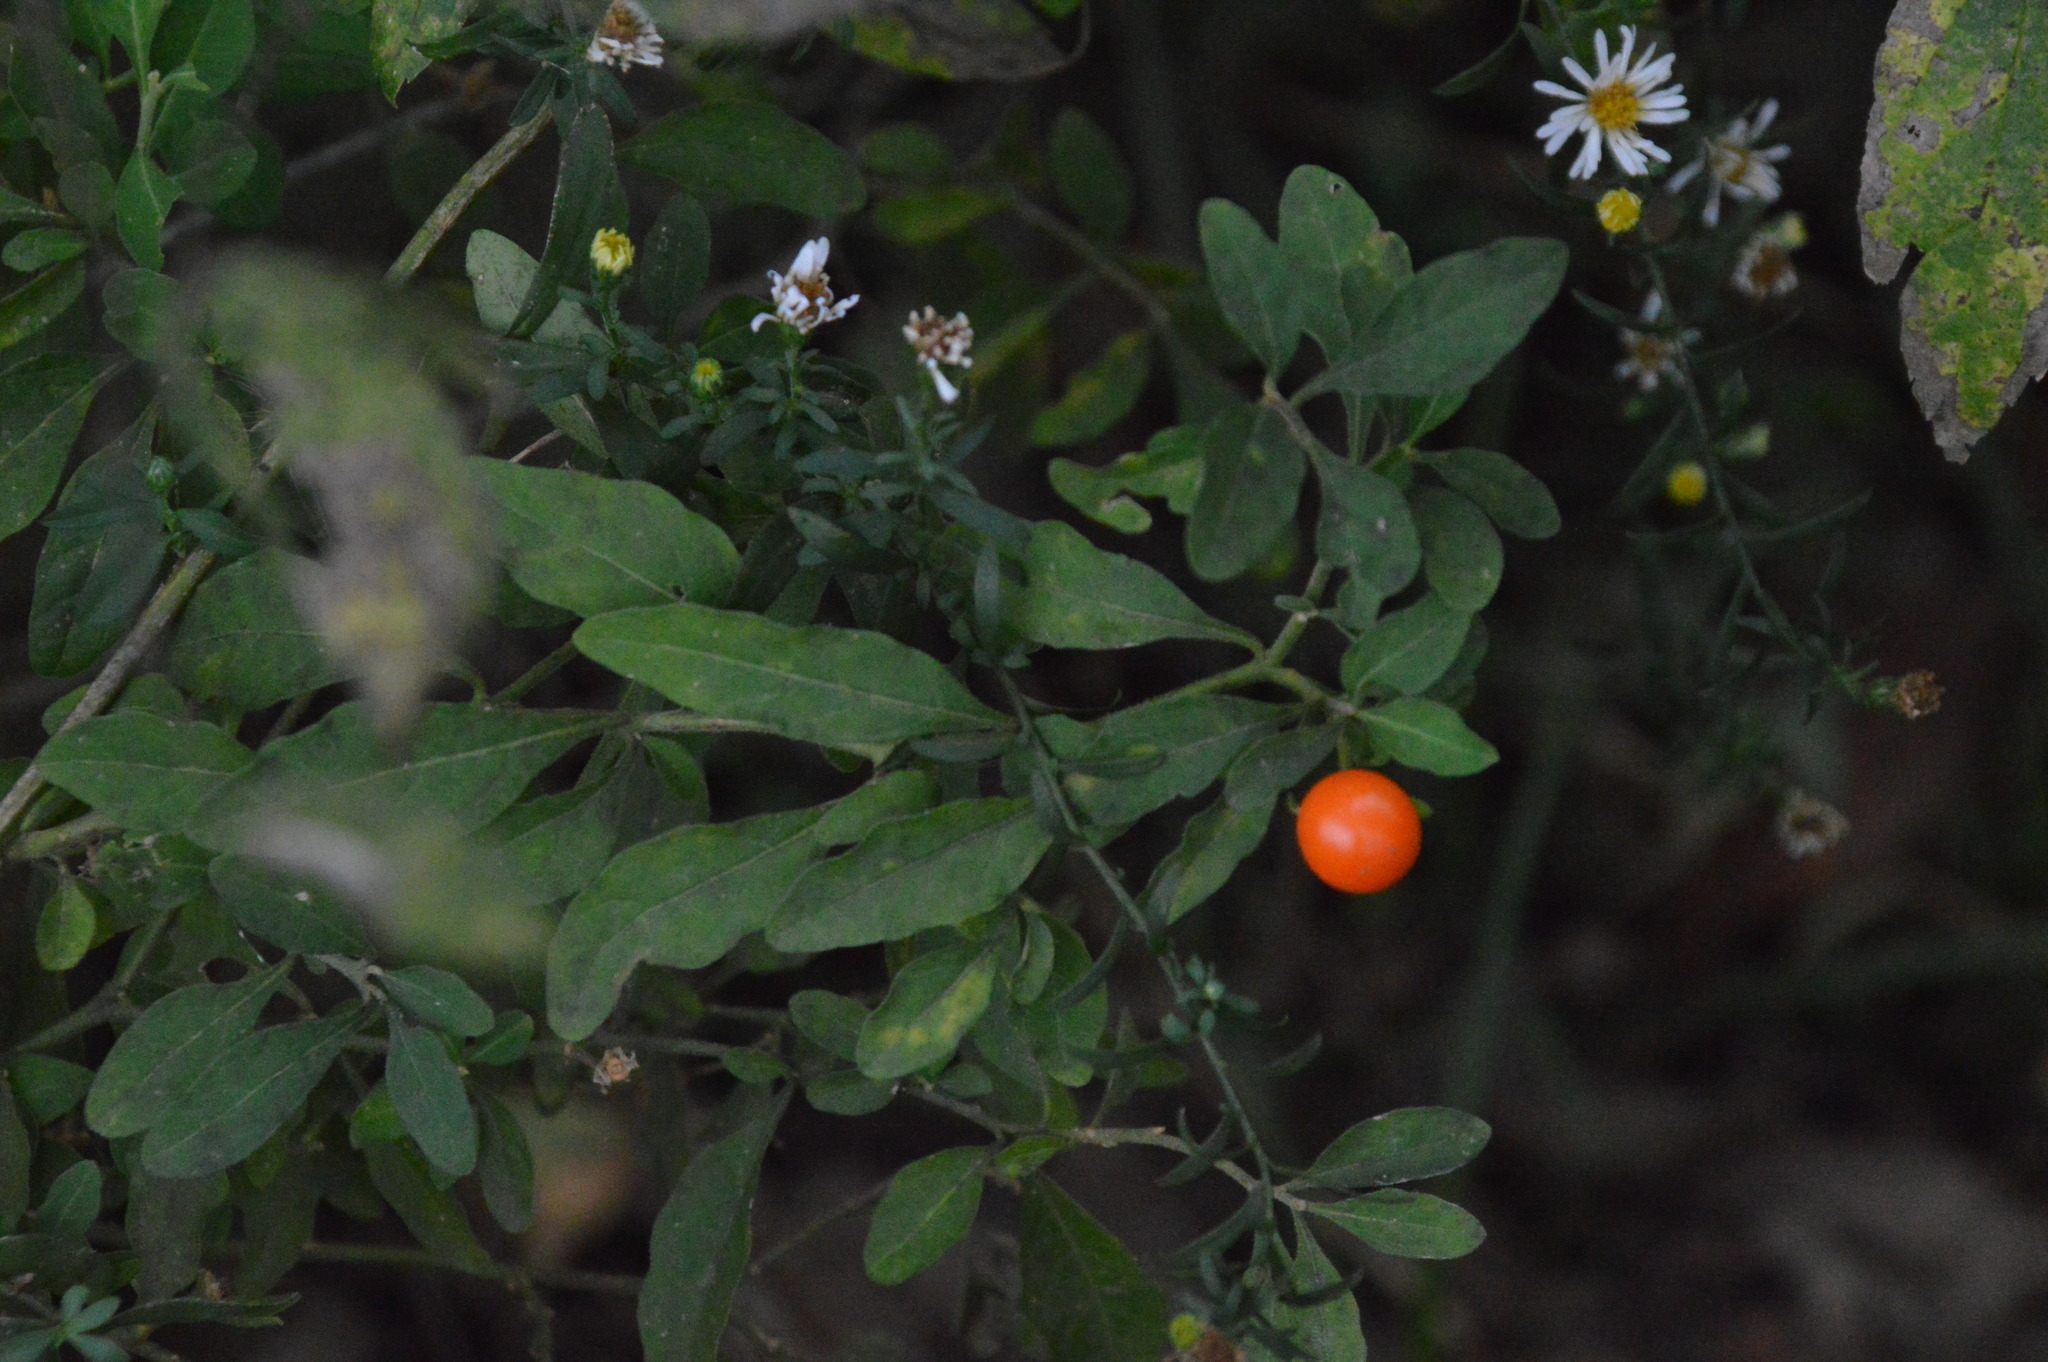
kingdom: Plantae
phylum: Tracheophyta
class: Magnoliopsida
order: Solanales
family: Solanaceae
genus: Solanum
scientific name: Solanum pseudocapsicum
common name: Jerusalem cherry
